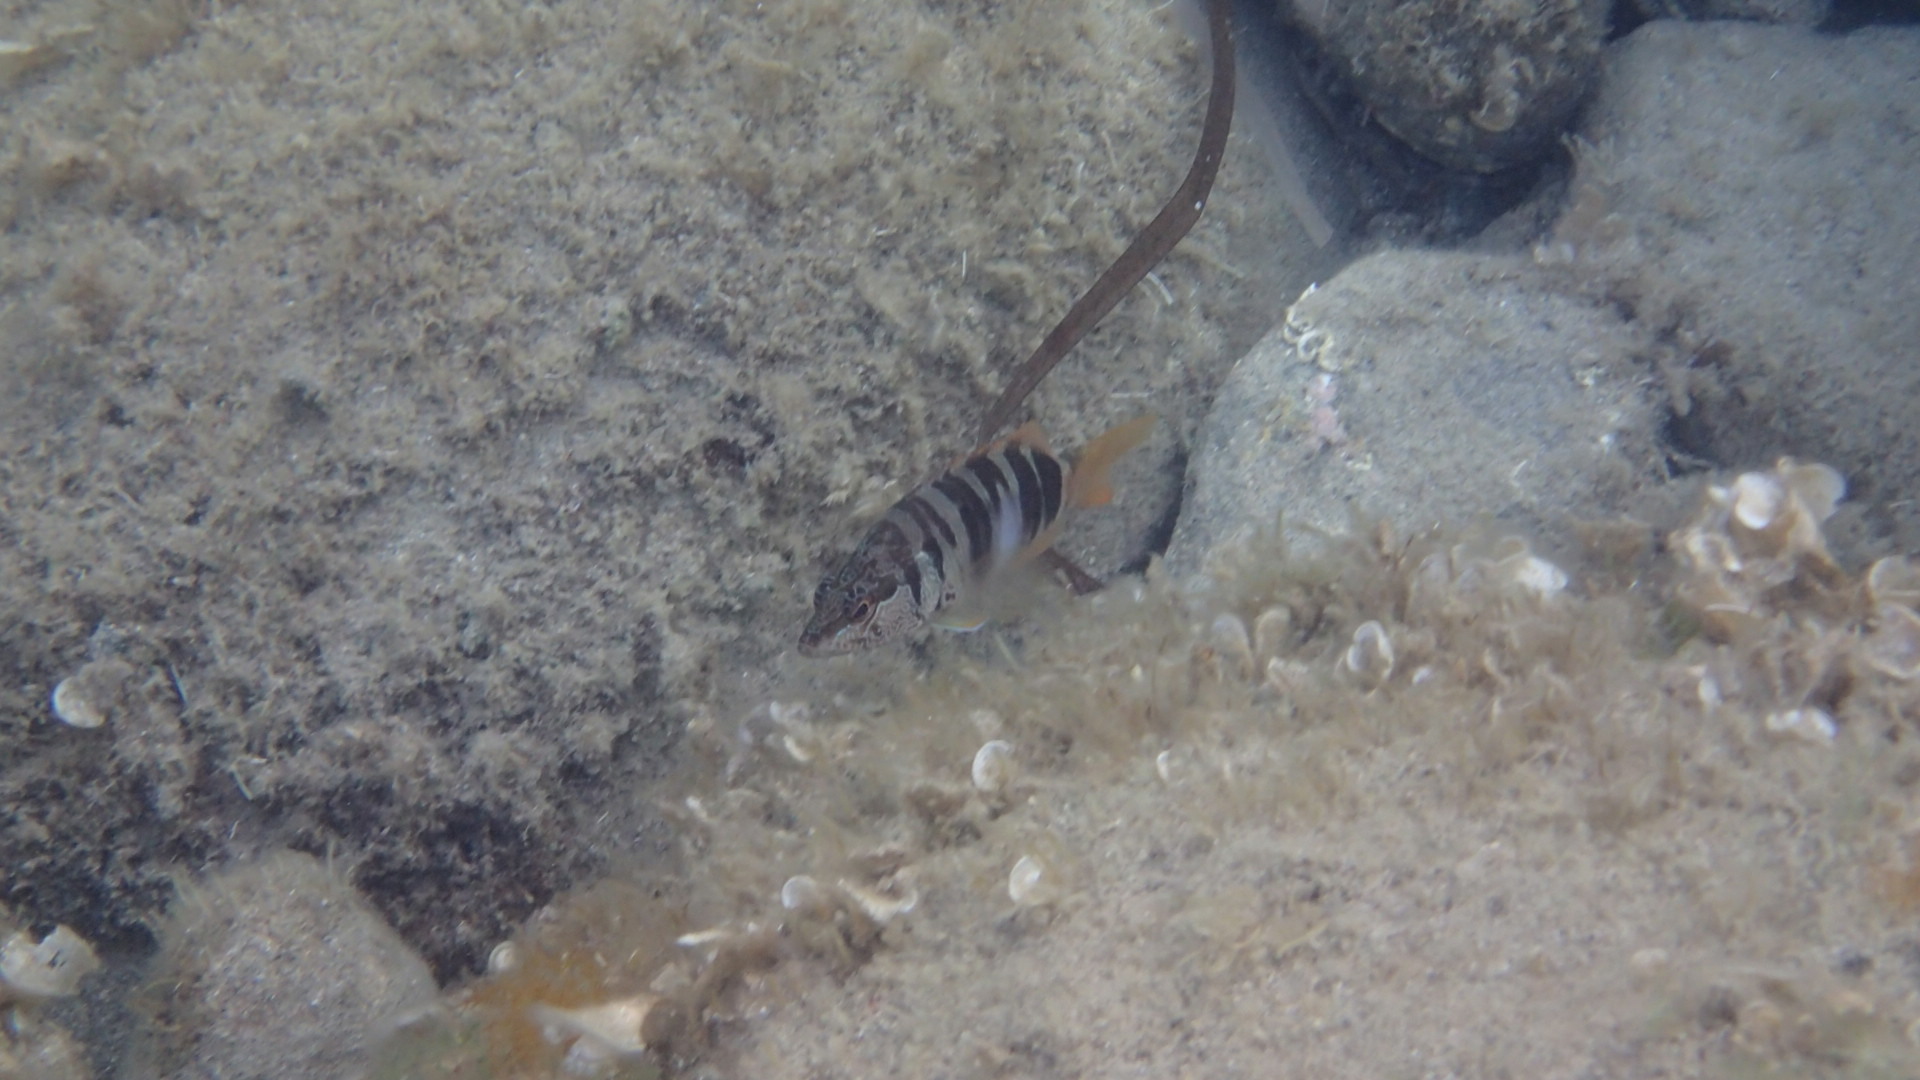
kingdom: Animalia
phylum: Chordata
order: Perciformes
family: Serranidae
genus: Serranus
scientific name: Serranus scriba
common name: Painted comber
